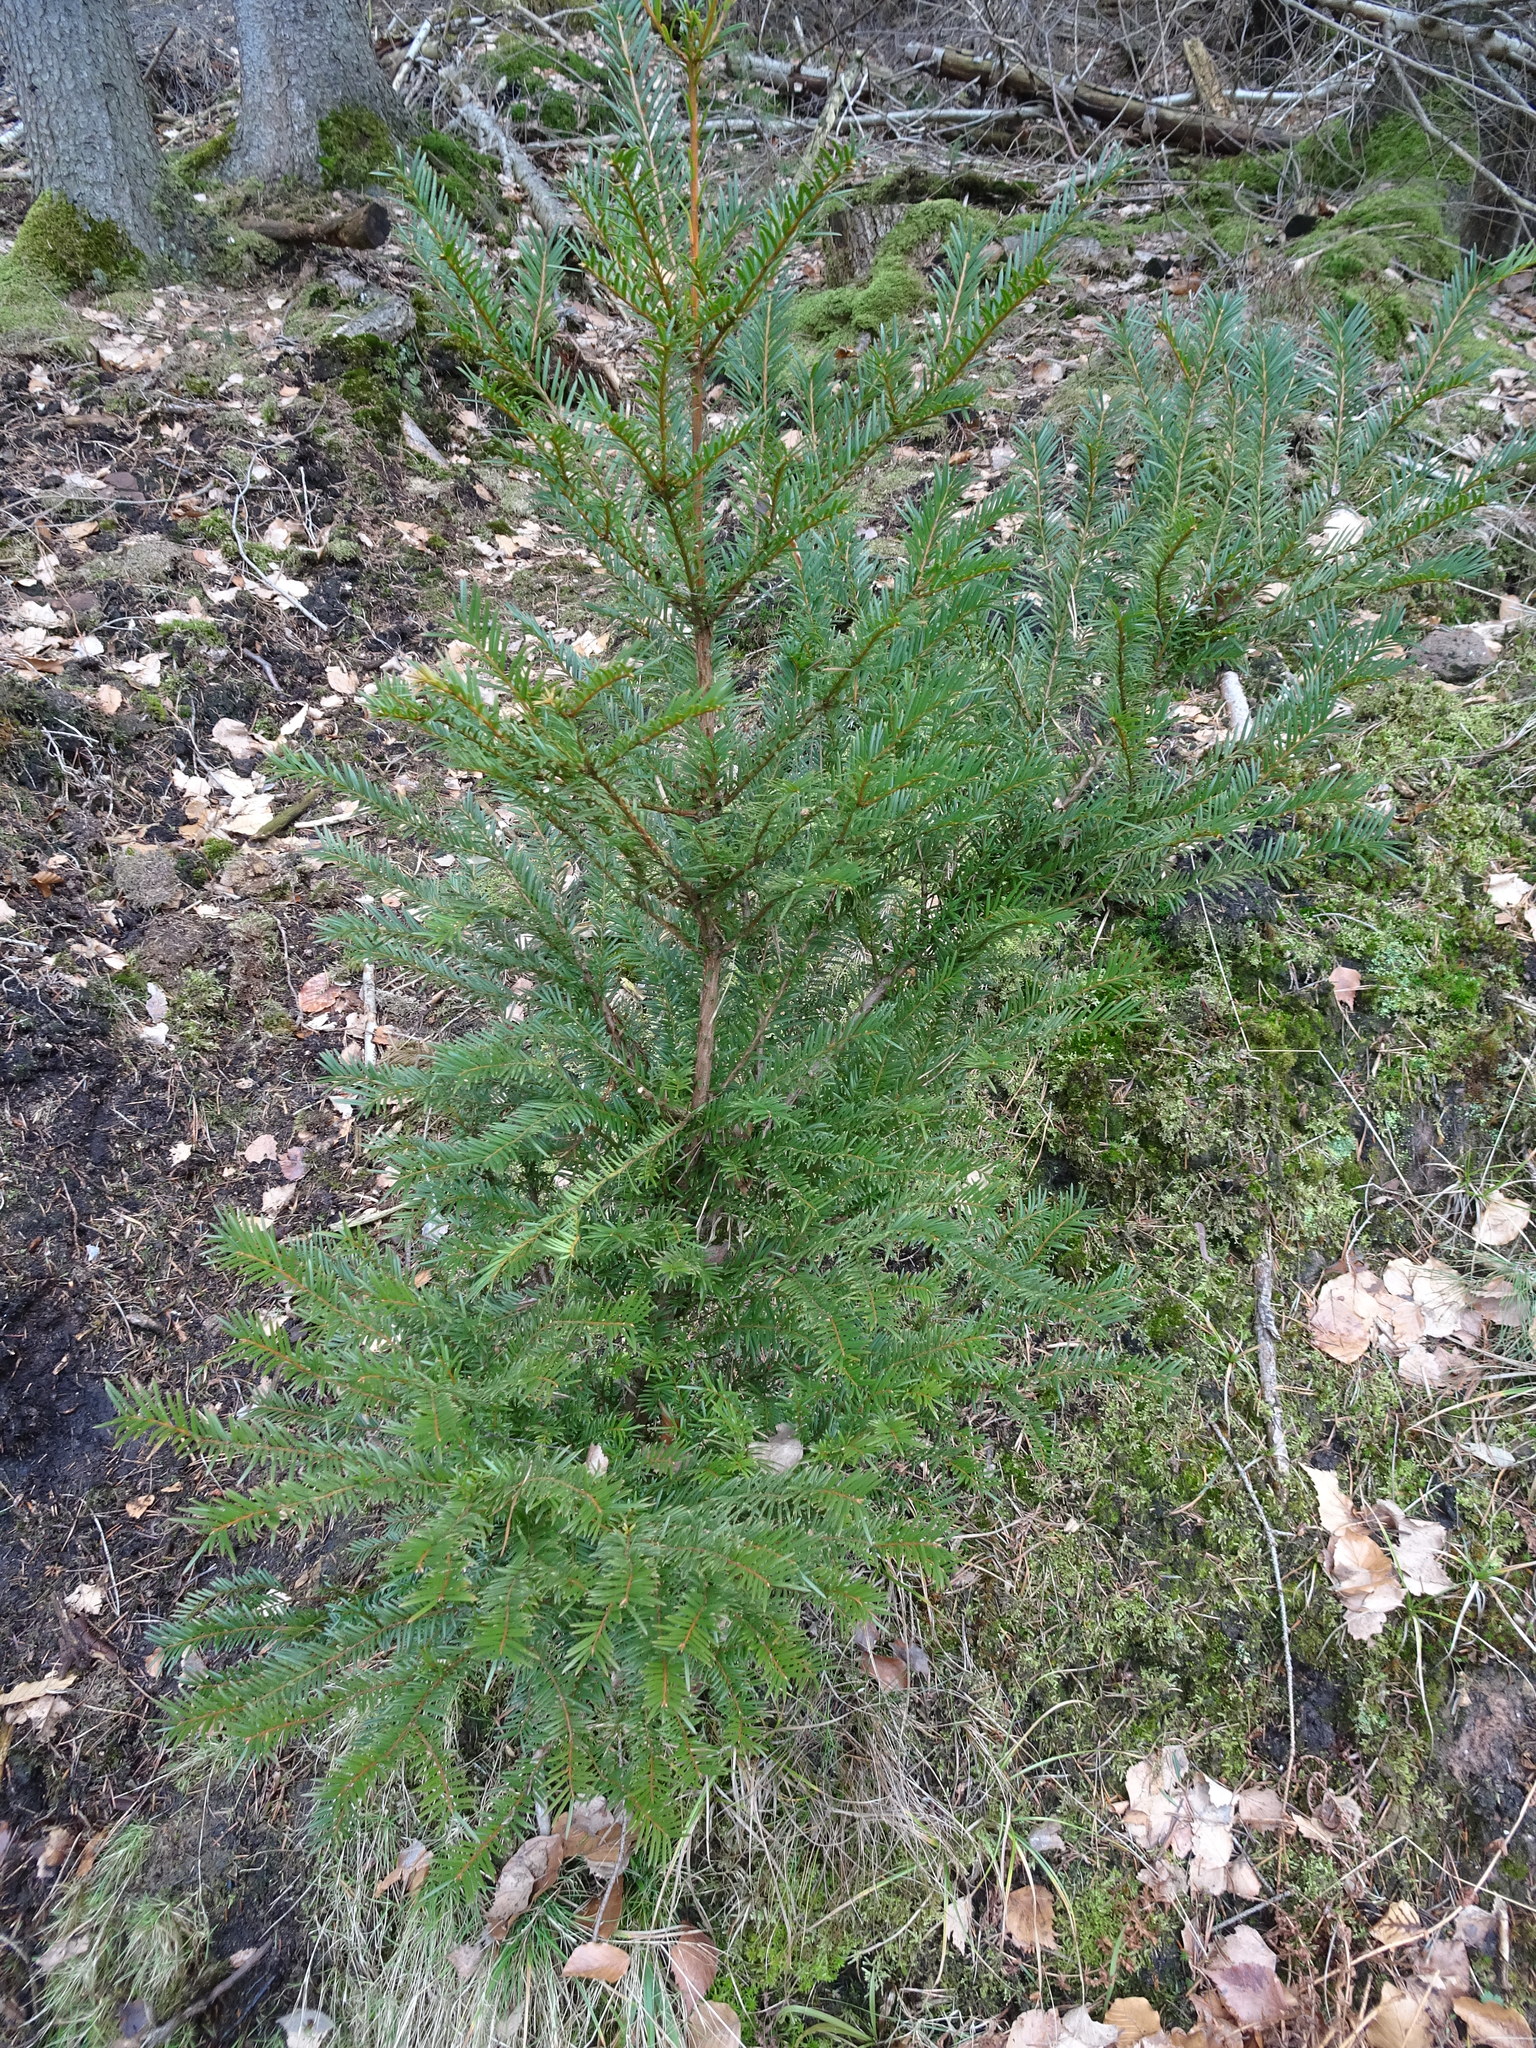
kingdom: Plantae
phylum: Tracheophyta
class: Pinopsida
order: Pinales
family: Taxaceae
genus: Taxus
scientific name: Taxus baccata
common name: Yew
